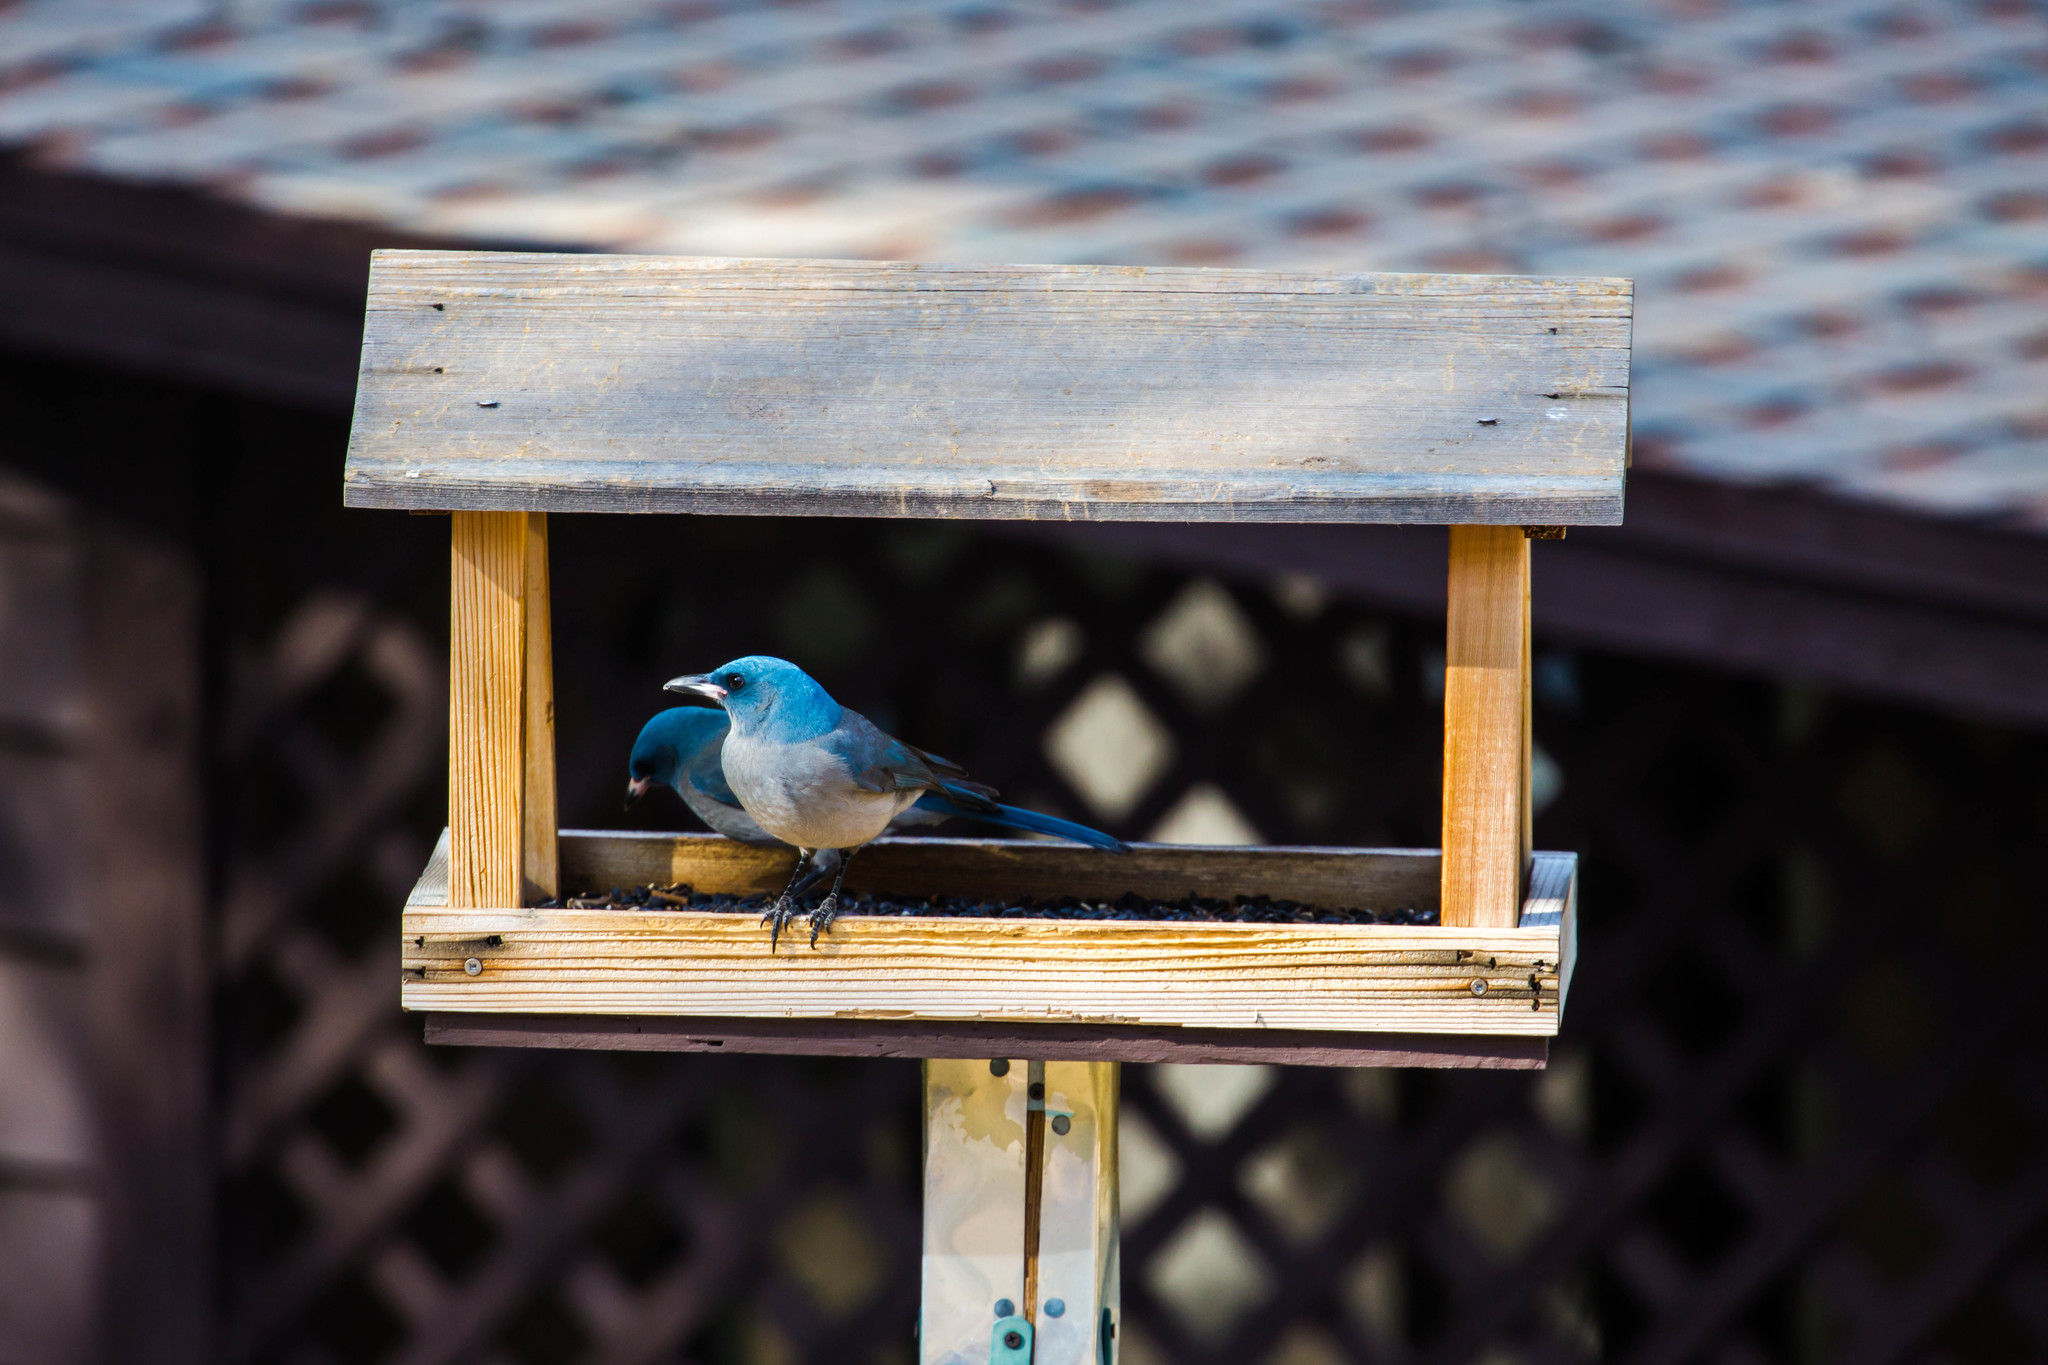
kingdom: Animalia
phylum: Chordata
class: Aves
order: Passeriformes
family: Corvidae
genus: Aphelocoma
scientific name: Aphelocoma wollweberi
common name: Mexican jay
